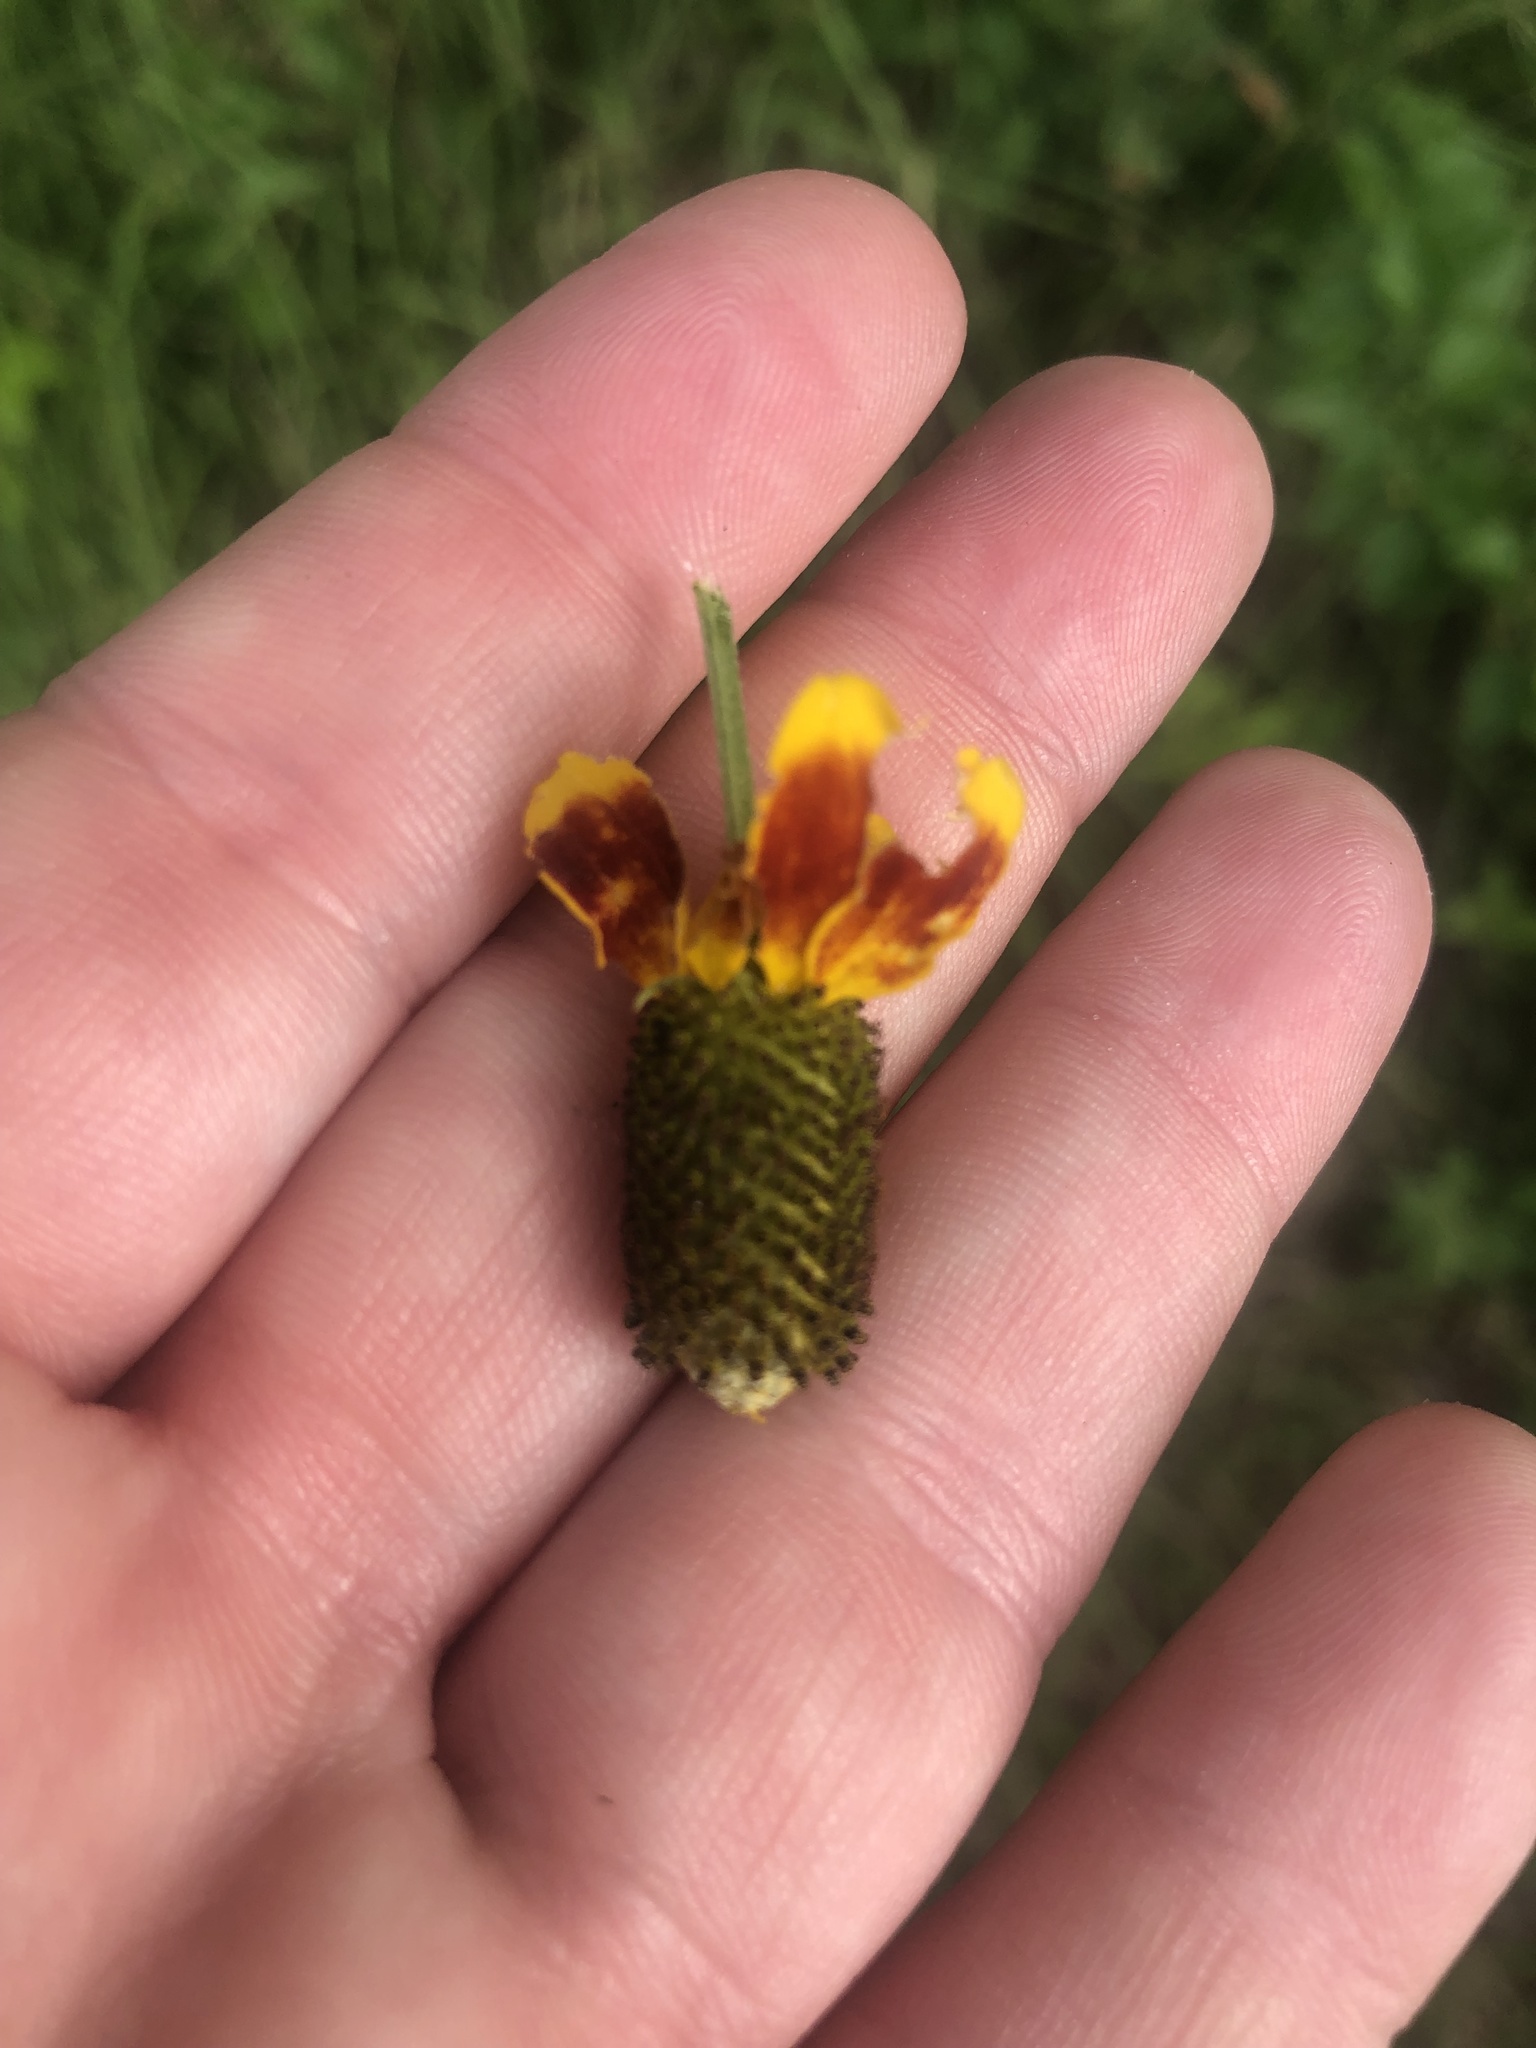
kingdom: Plantae
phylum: Tracheophyta
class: Magnoliopsida
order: Asterales
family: Asteraceae
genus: Ratibida
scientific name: Ratibida columnifera
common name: Prairie coneflower
